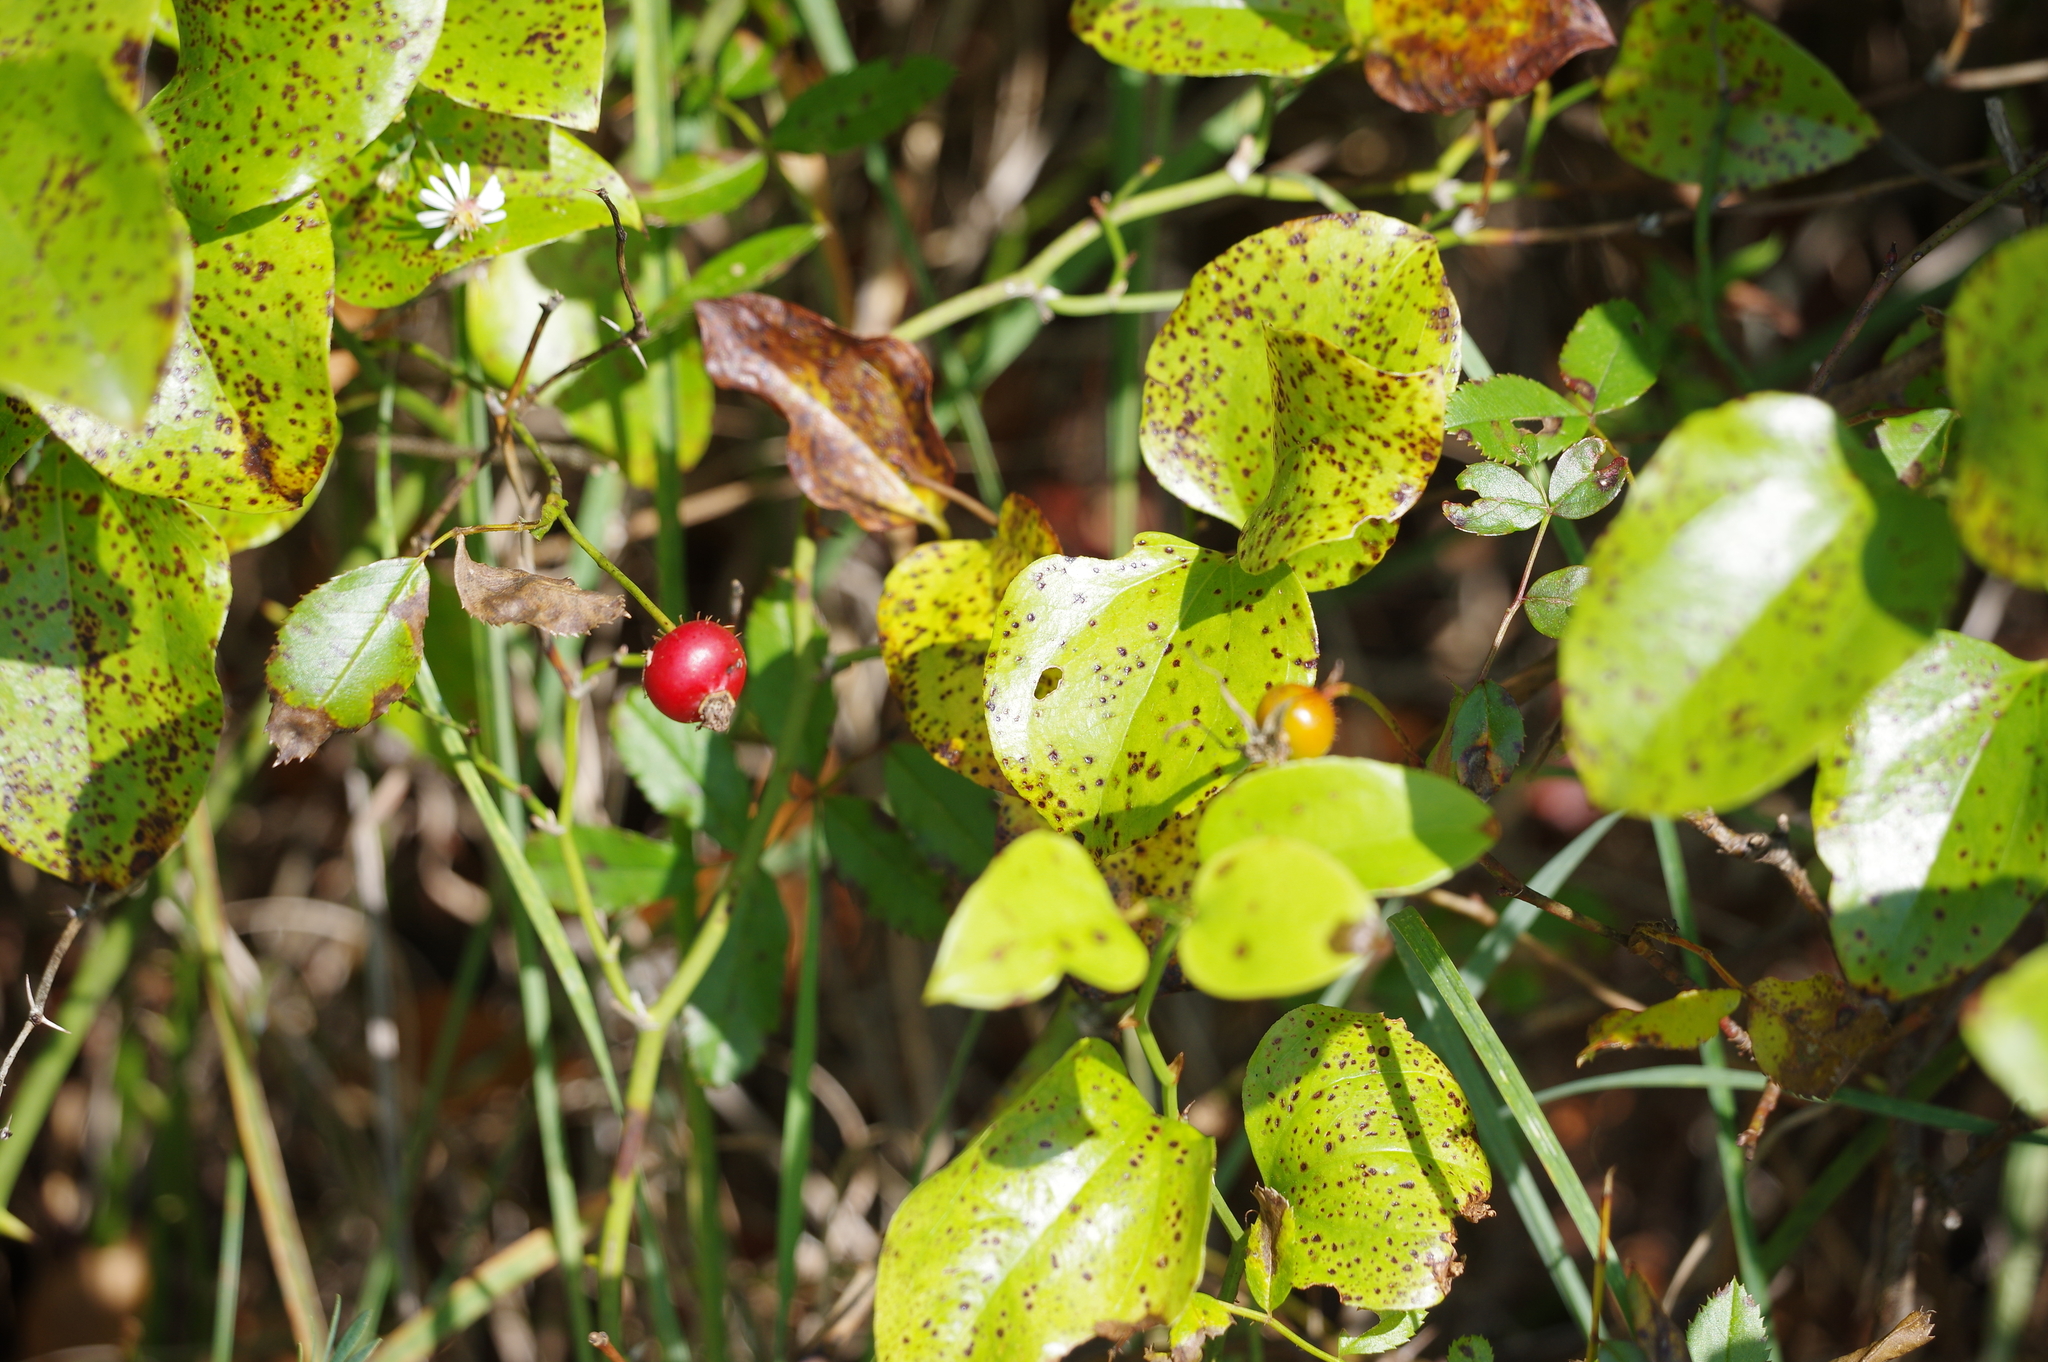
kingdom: Plantae
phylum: Tracheophyta
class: Liliopsida
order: Liliales
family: Smilacaceae
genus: Smilax
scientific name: Smilax rotundifolia
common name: Bullbriar
